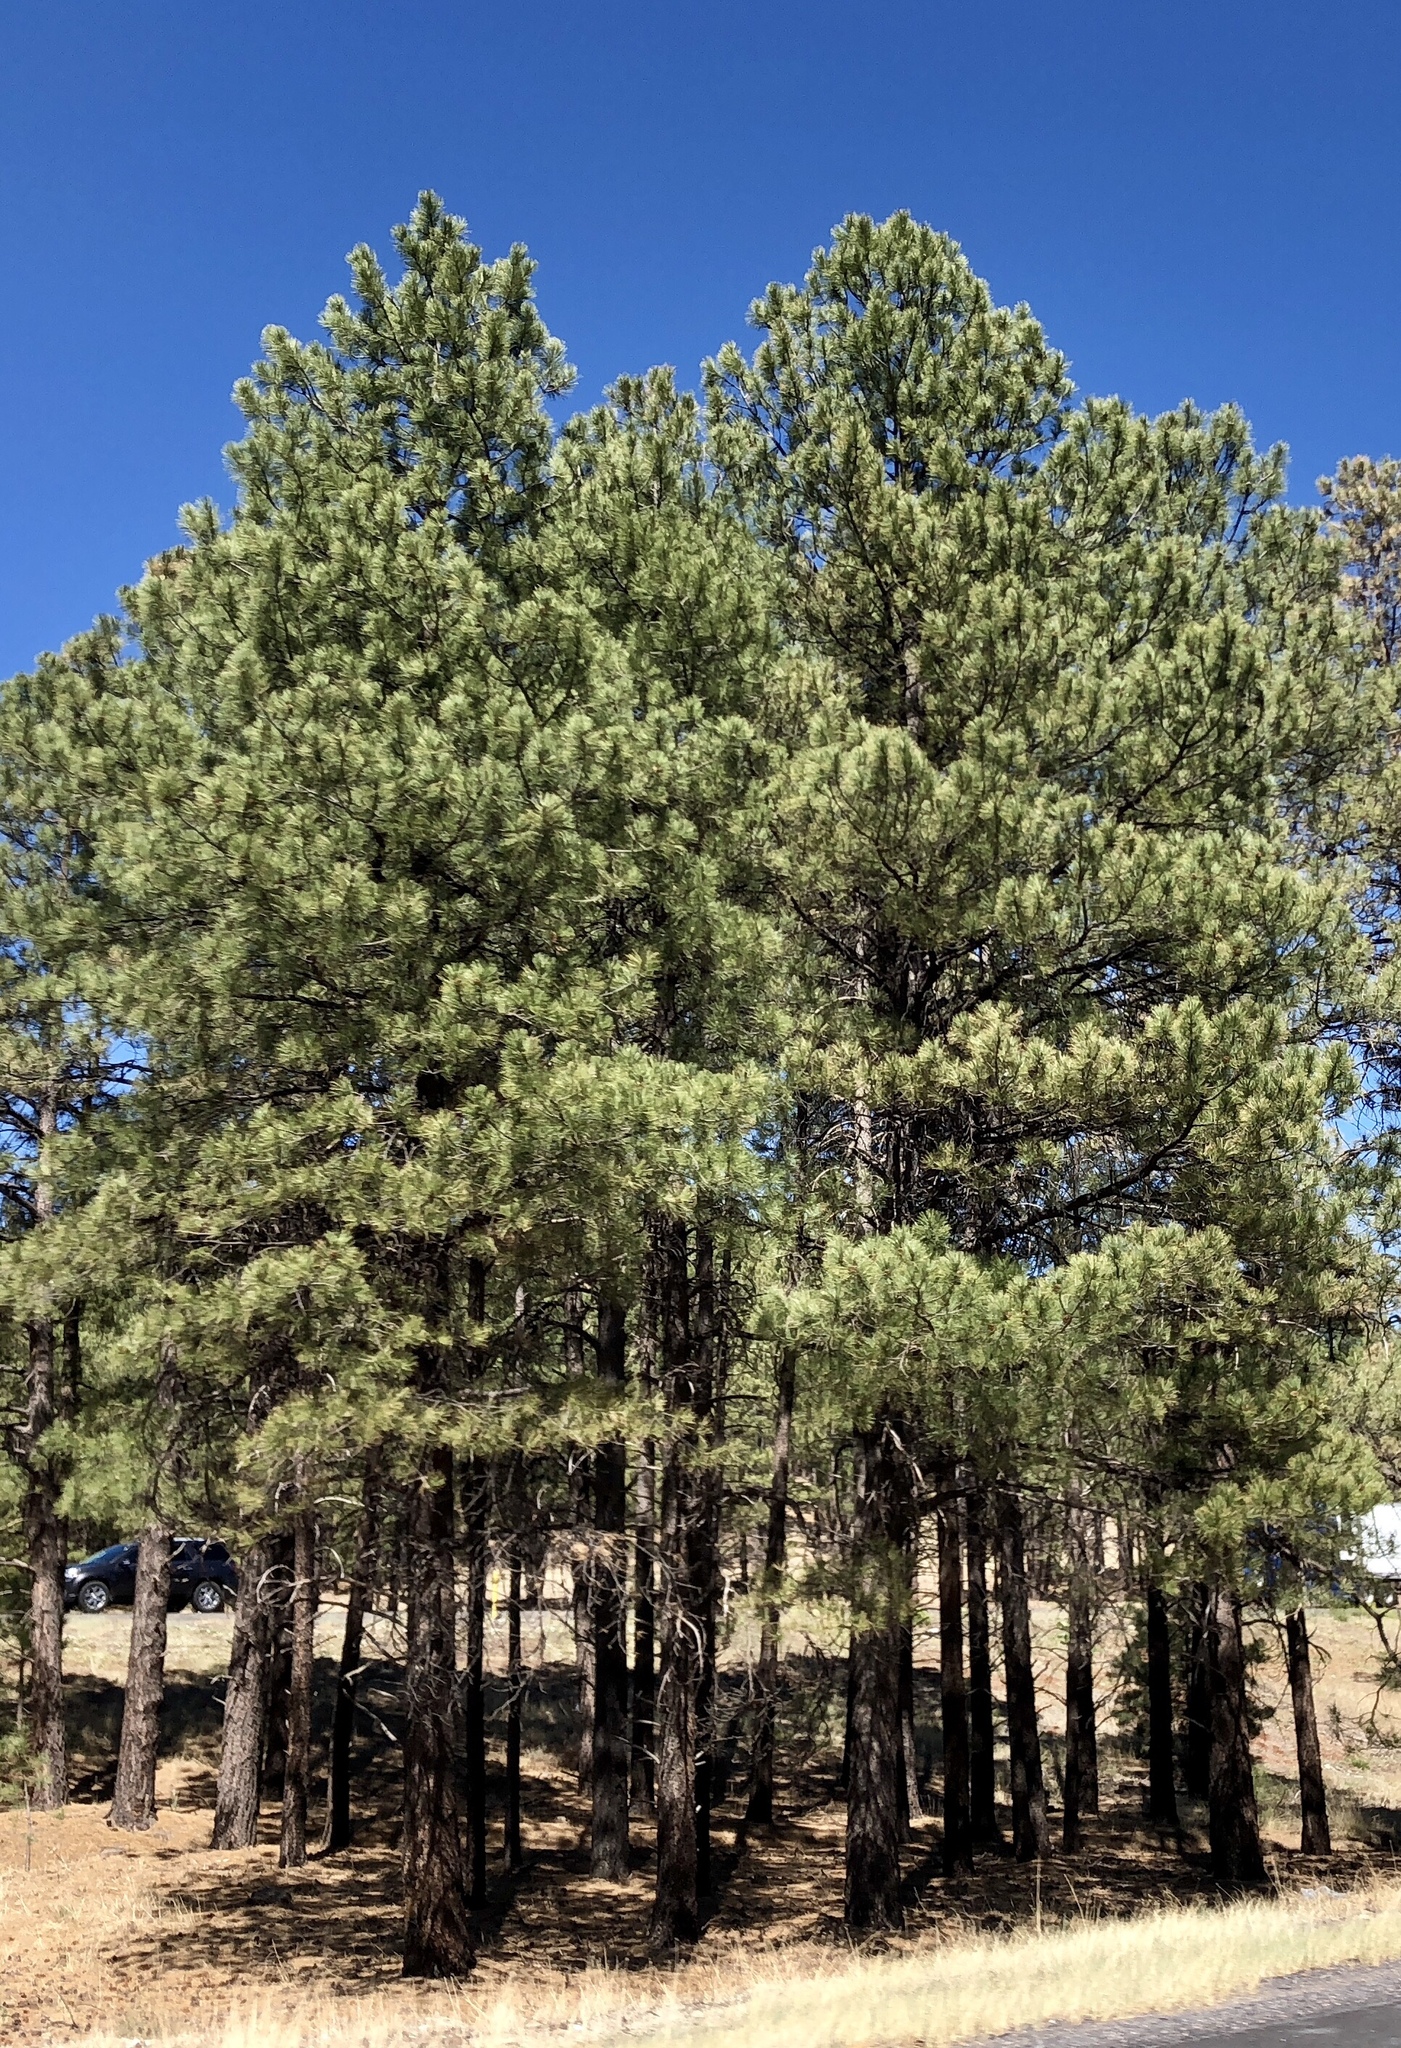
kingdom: Plantae
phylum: Tracheophyta
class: Pinopsida
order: Pinales
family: Pinaceae
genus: Pinus
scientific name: Pinus ponderosa
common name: Western yellow-pine
